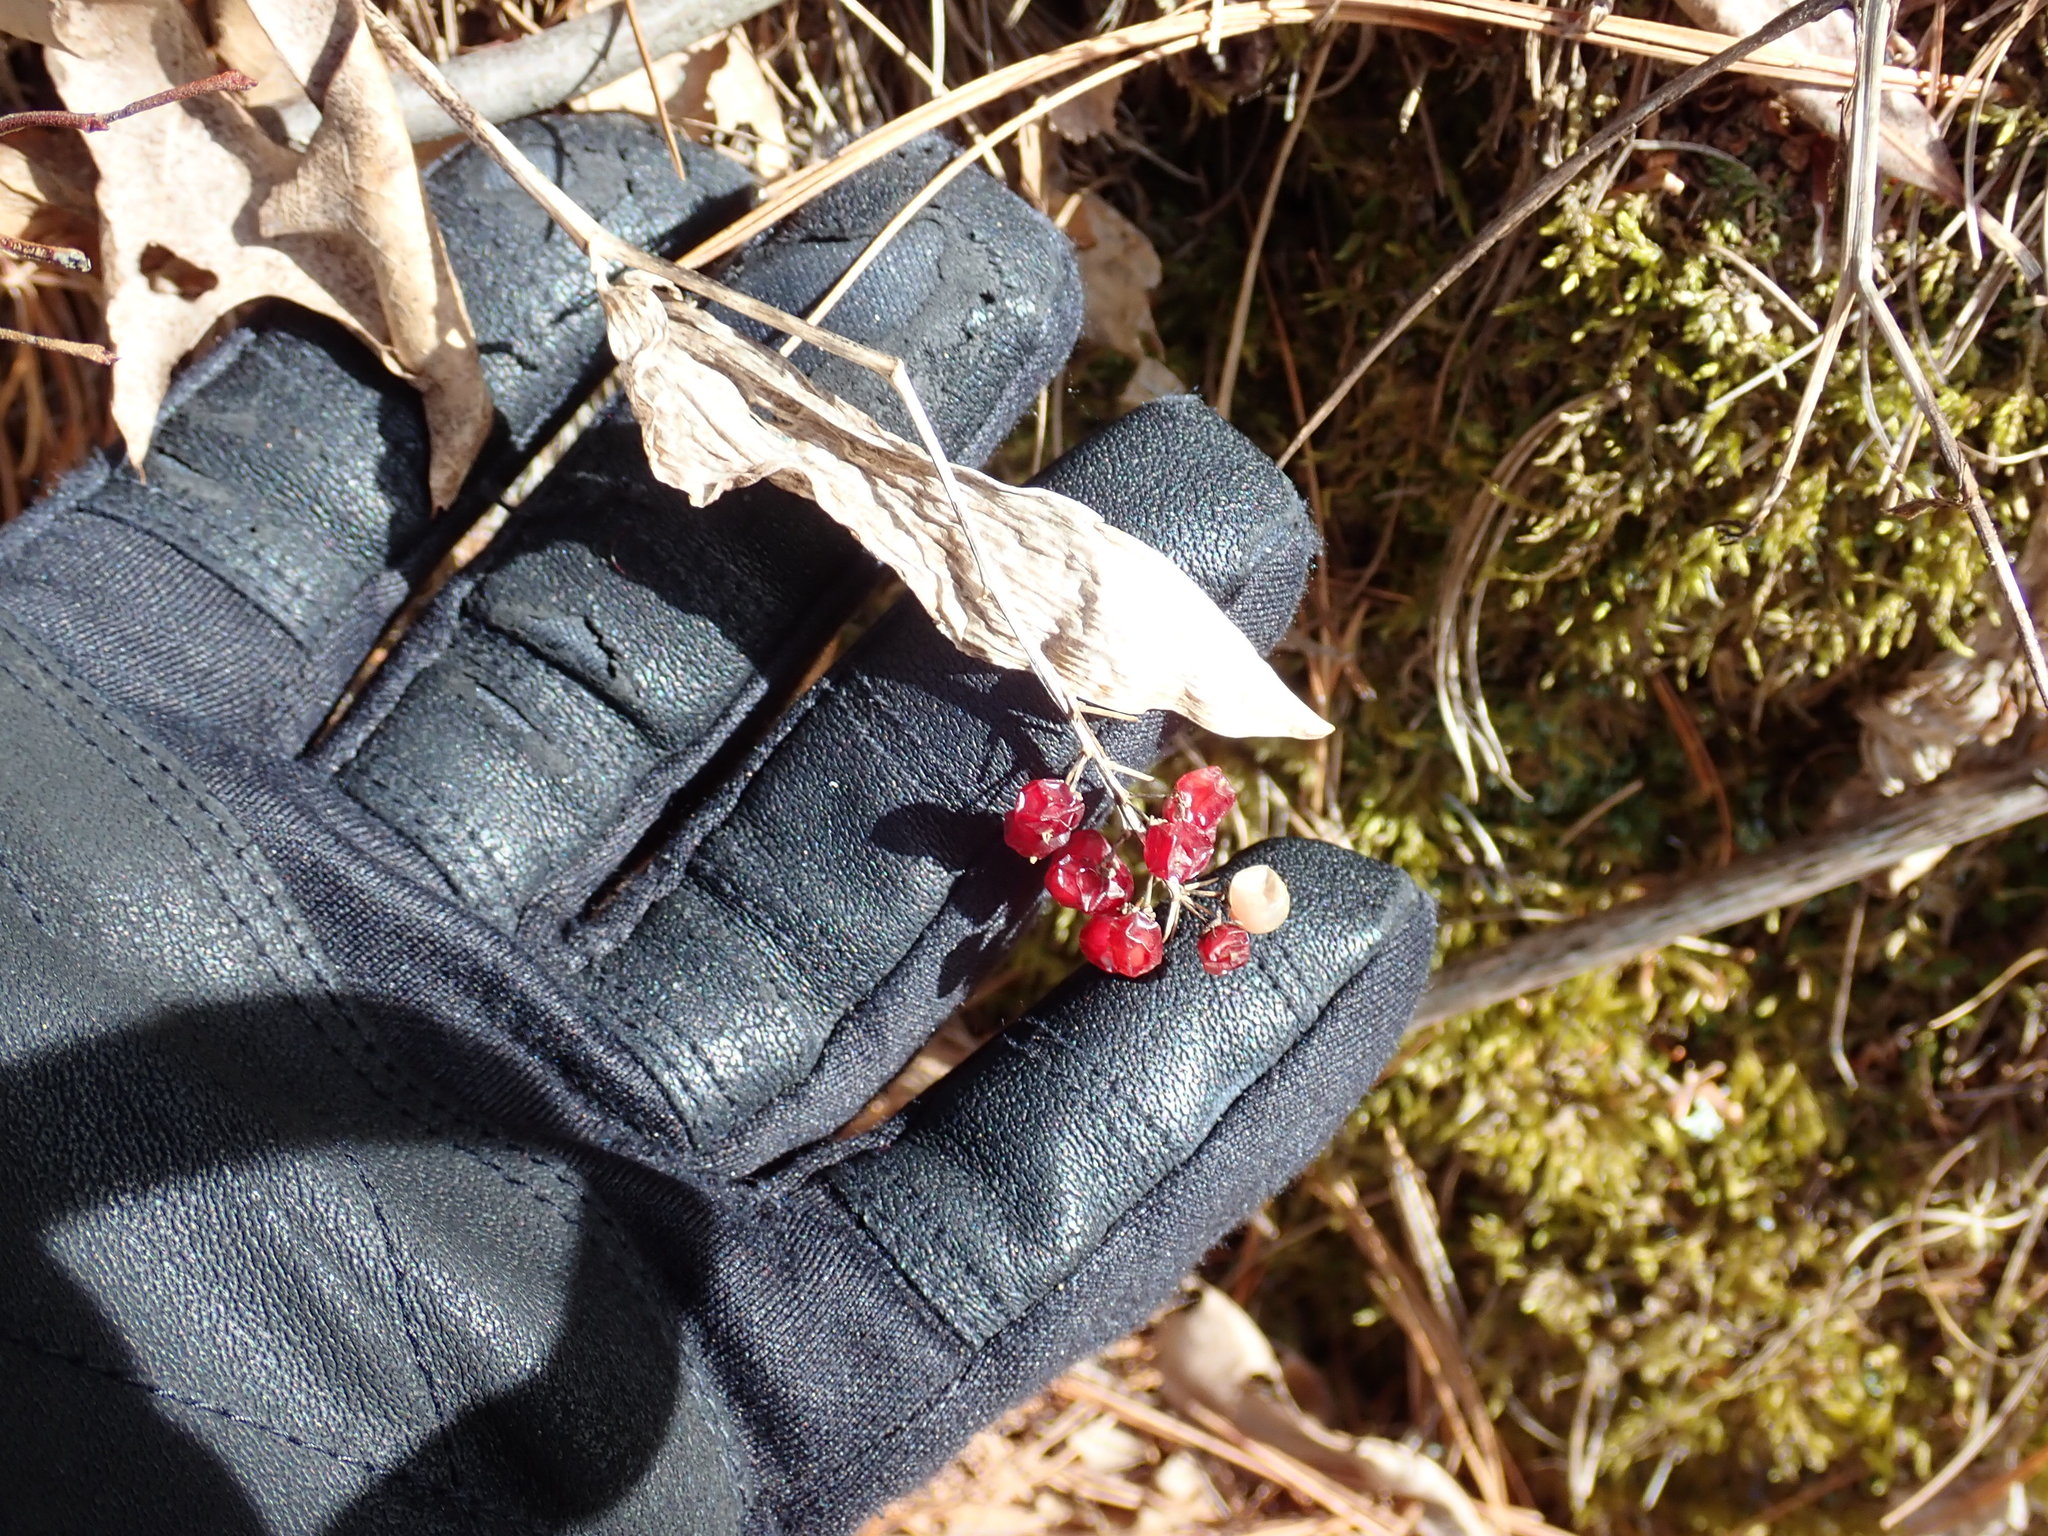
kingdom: Plantae
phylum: Tracheophyta
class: Liliopsida
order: Asparagales
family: Asparagaceae
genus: Maianthemum
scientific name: Maianthemum canadense
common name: False lily-of-the-valley
